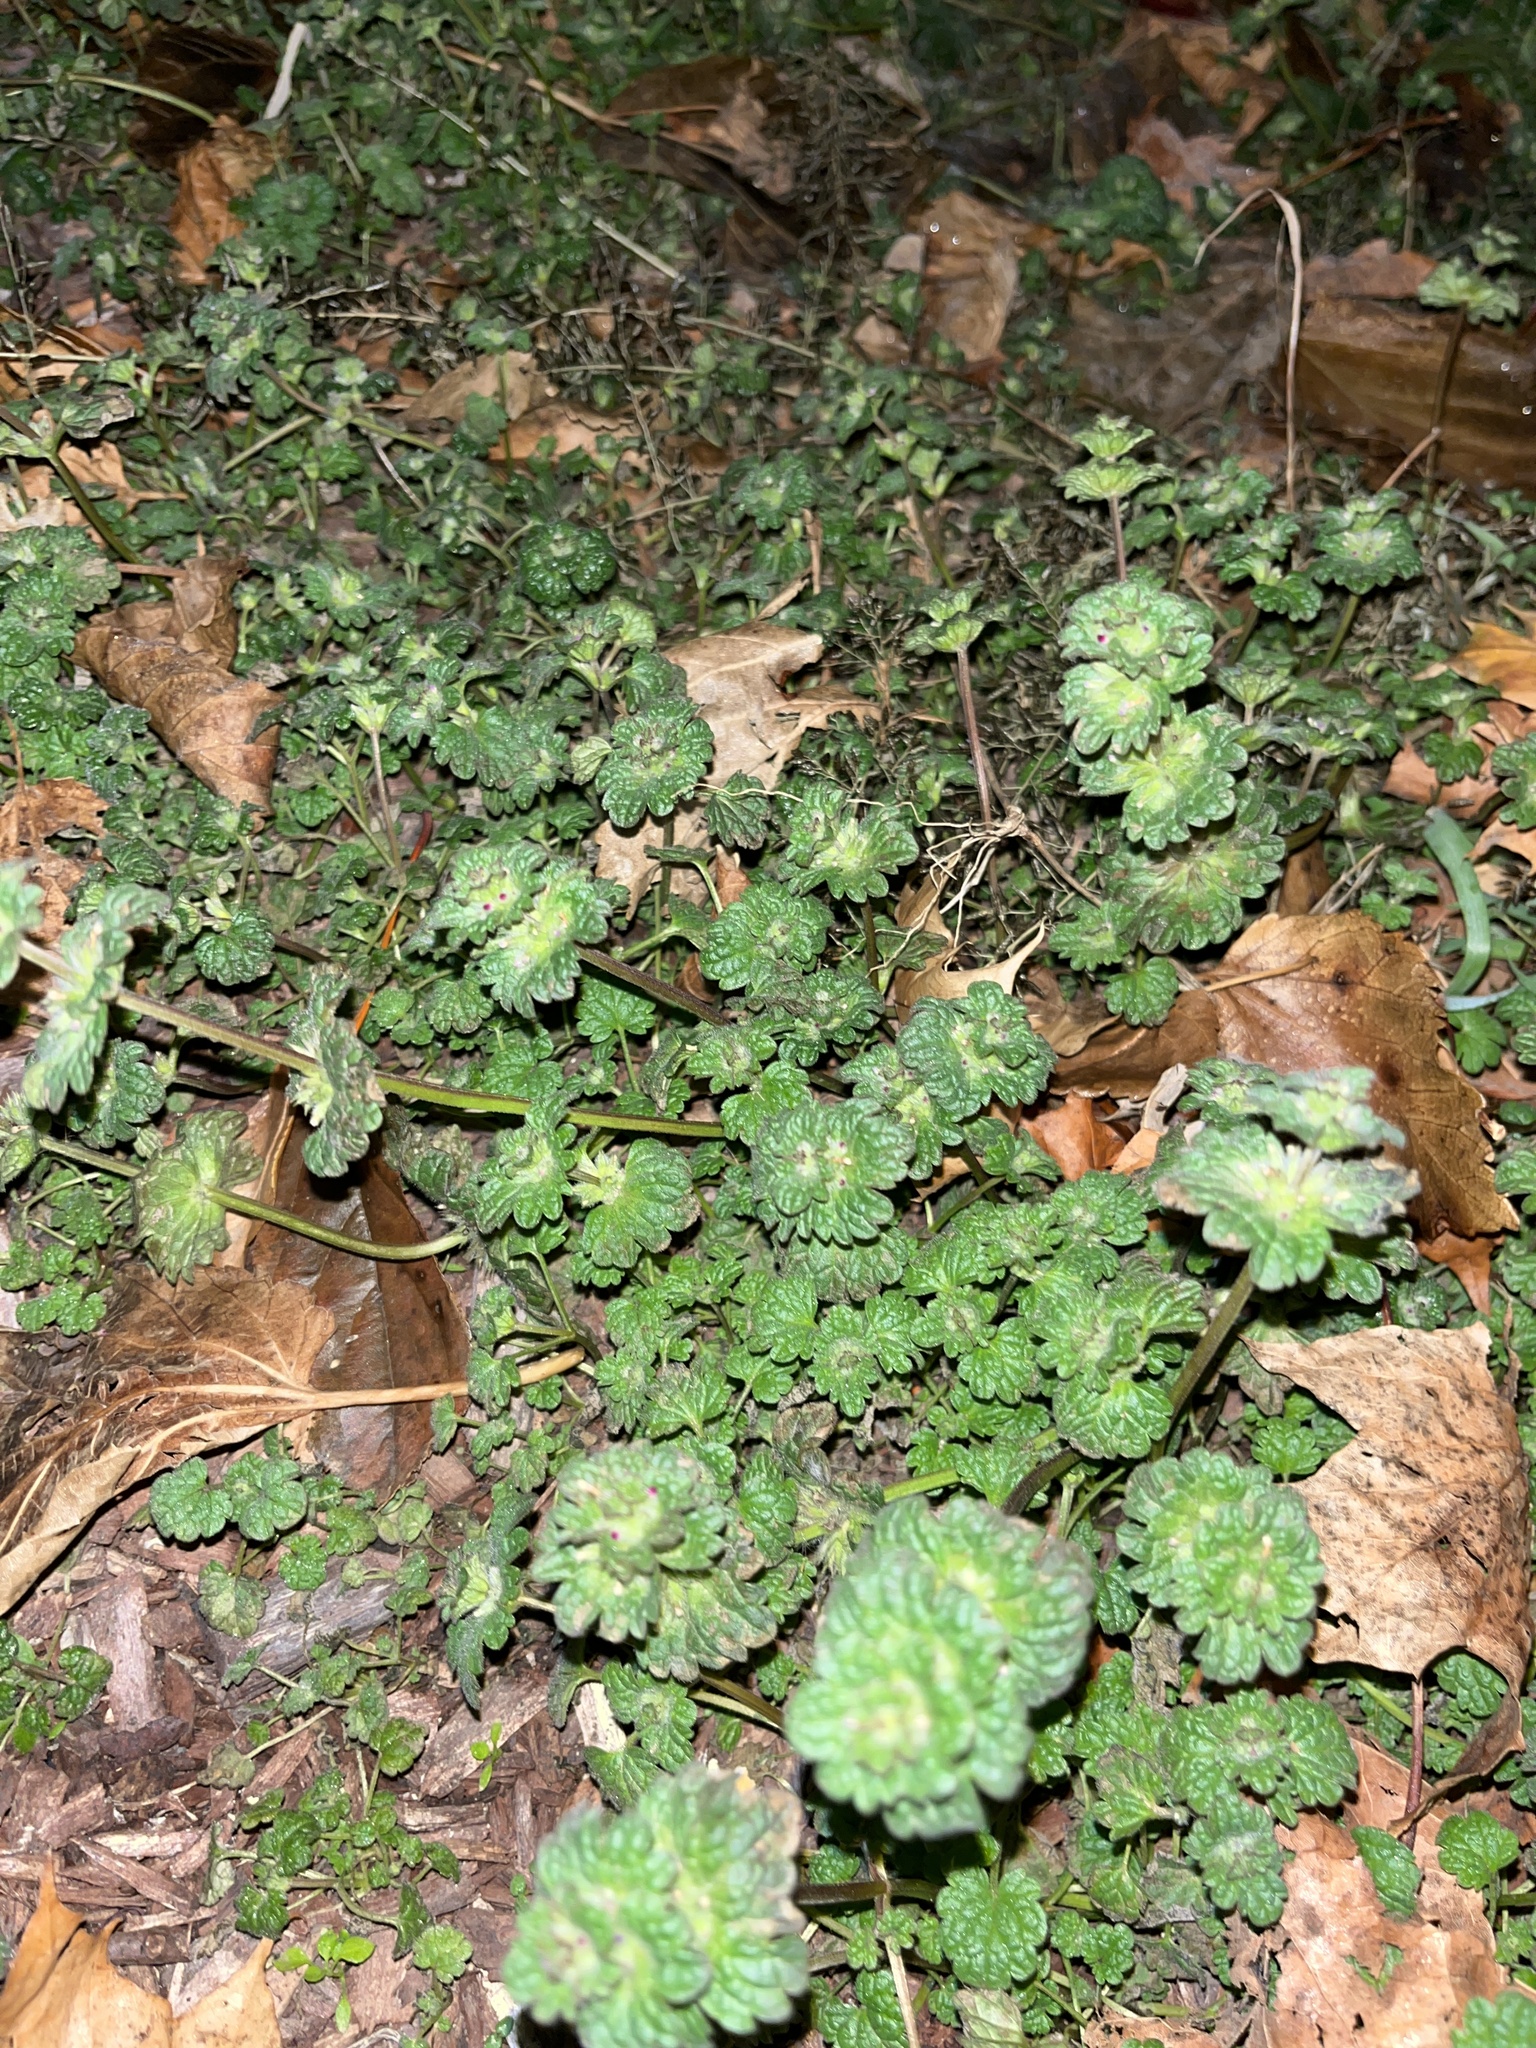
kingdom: Plantae
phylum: Tracheophyta
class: Magnoliopsida
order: Lamiales
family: Lamiaceae
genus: Lamium
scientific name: Lamium amplexicaule
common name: Henbit dead-nettle
